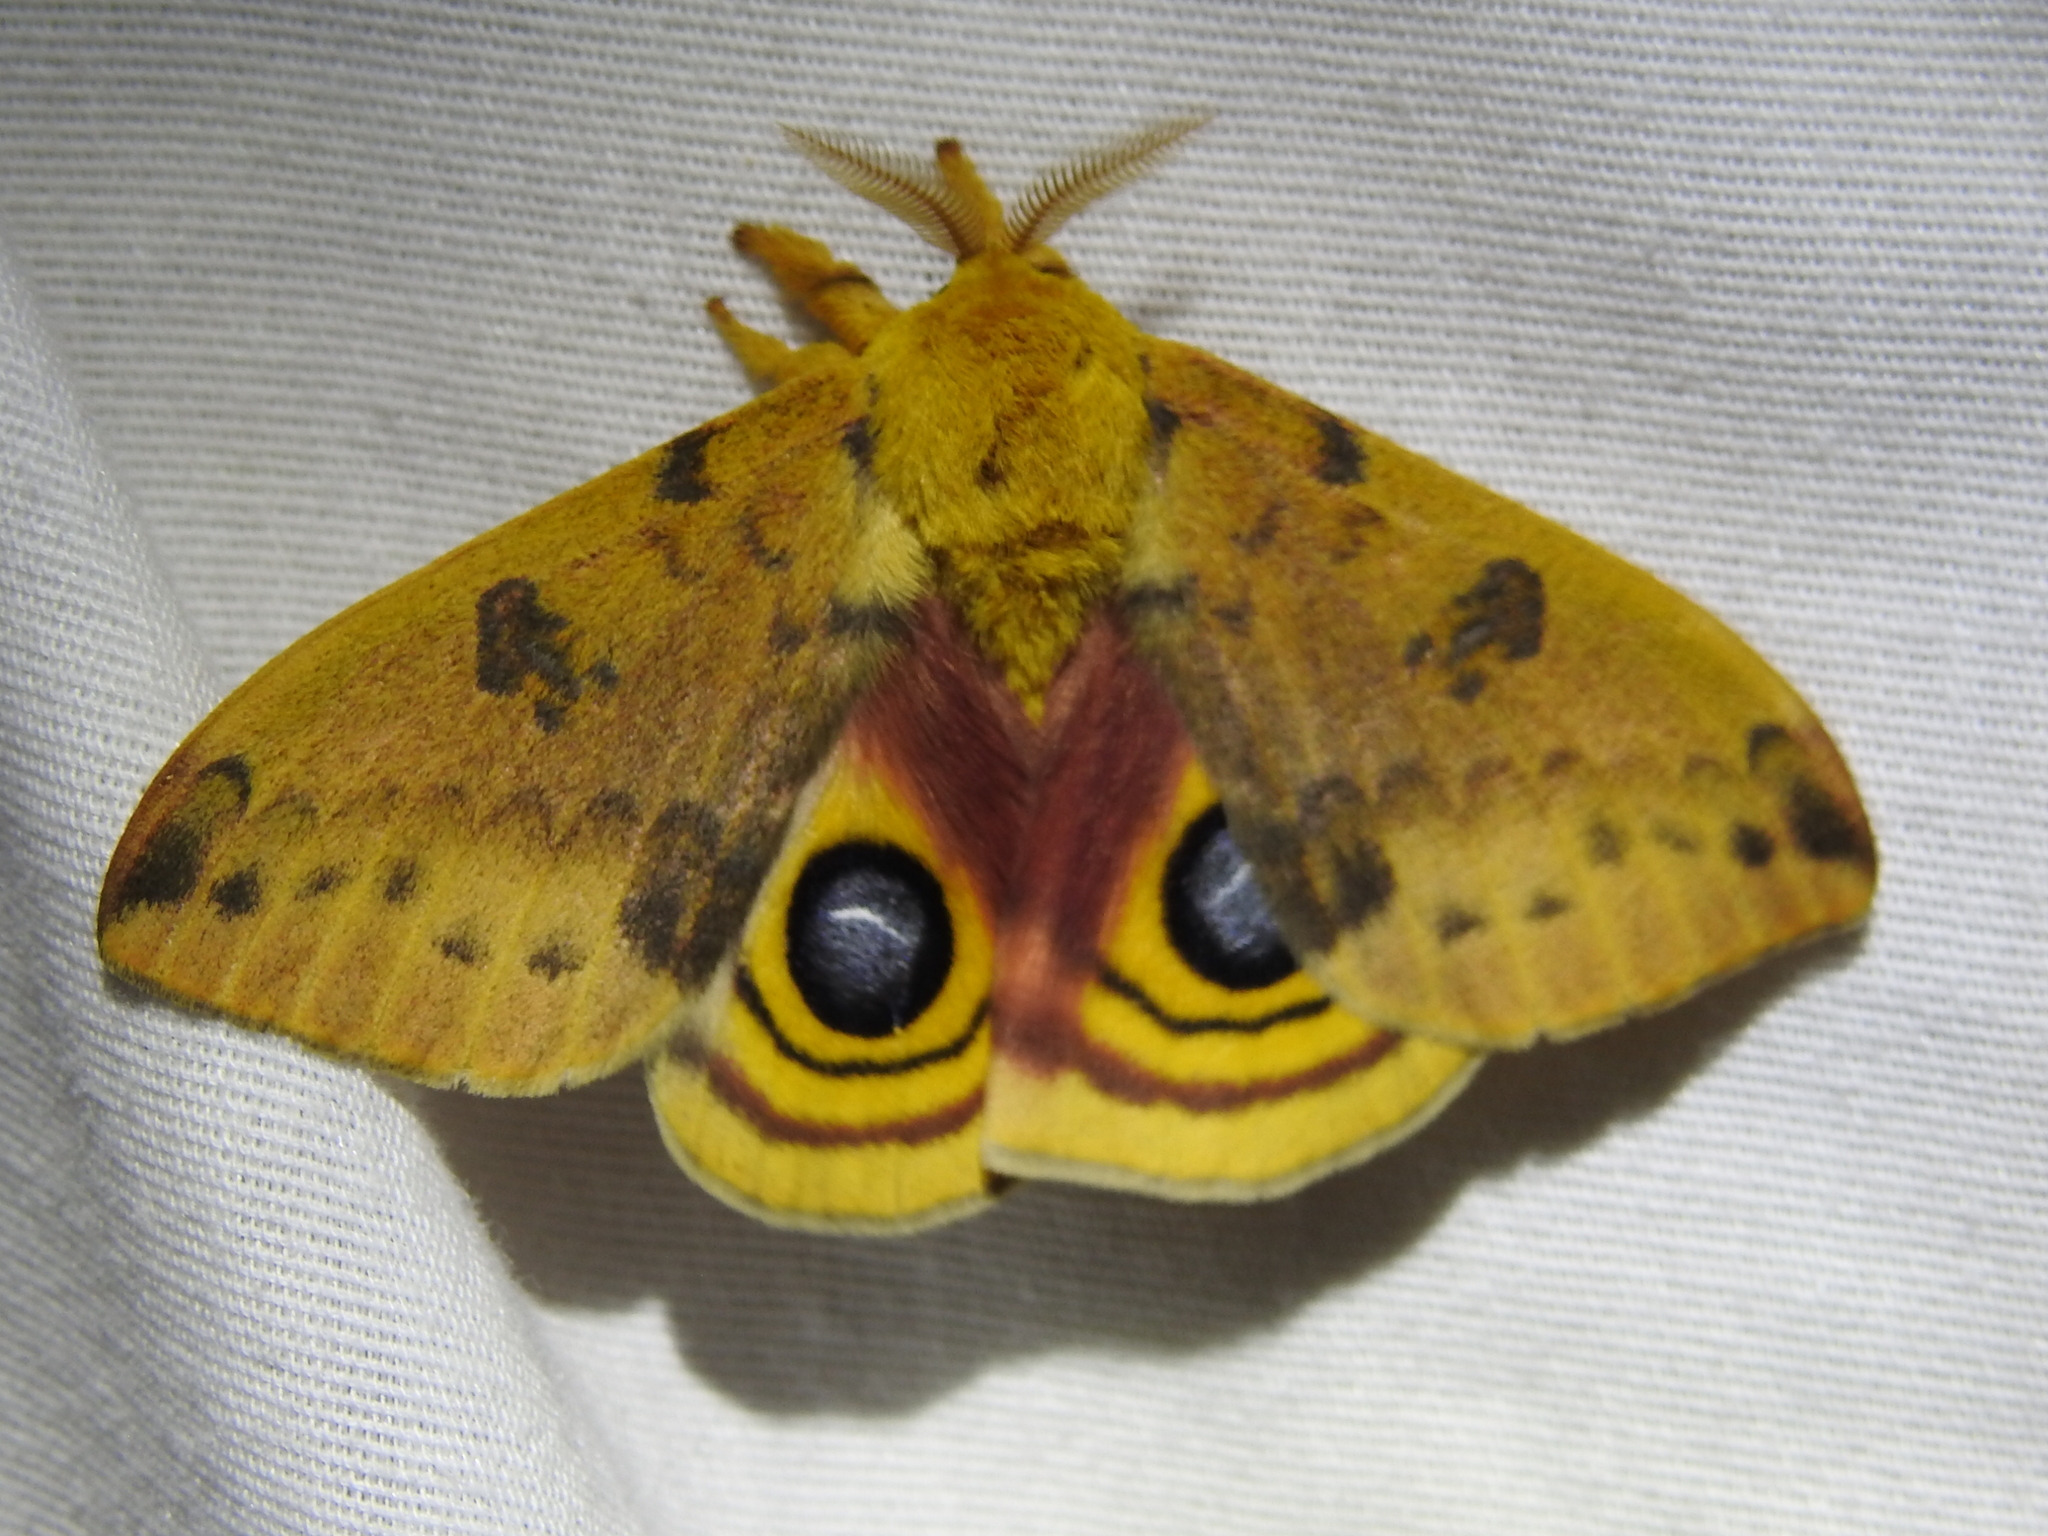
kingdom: Animalia
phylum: Arthropoda
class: Insecta
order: Lepidoptera
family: Saturniidae
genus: Automeris
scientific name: Automeris io
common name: Io moth
